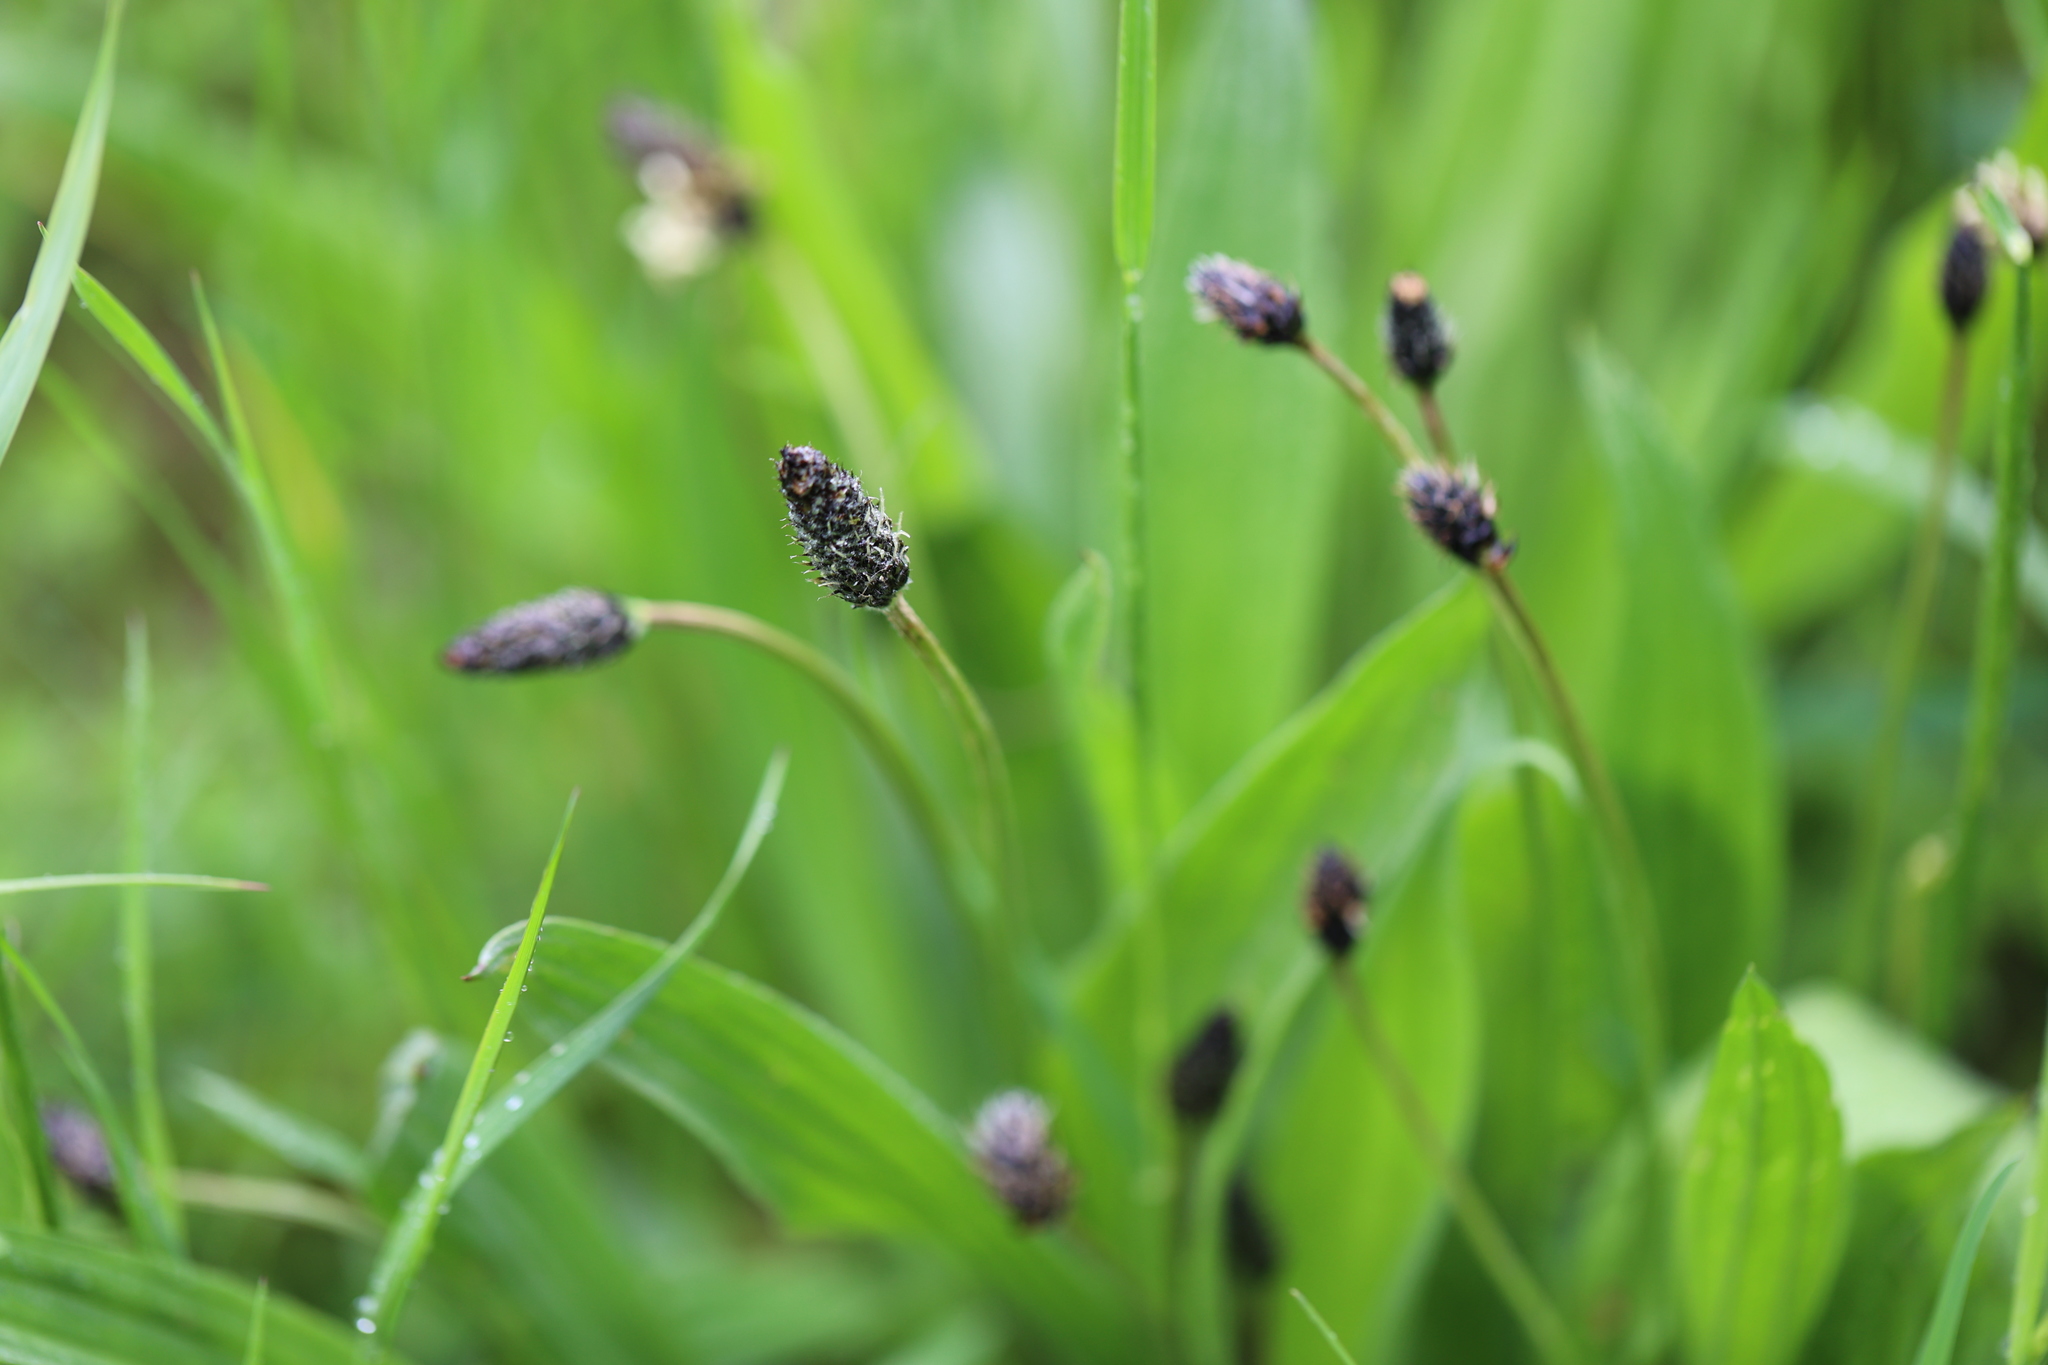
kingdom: Plantae
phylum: Tracheophyta
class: Magnoliopsida
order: Lamiales
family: Plantaginaceae
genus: Plantago
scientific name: Plantago lanceolata
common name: Ribwort plantain
